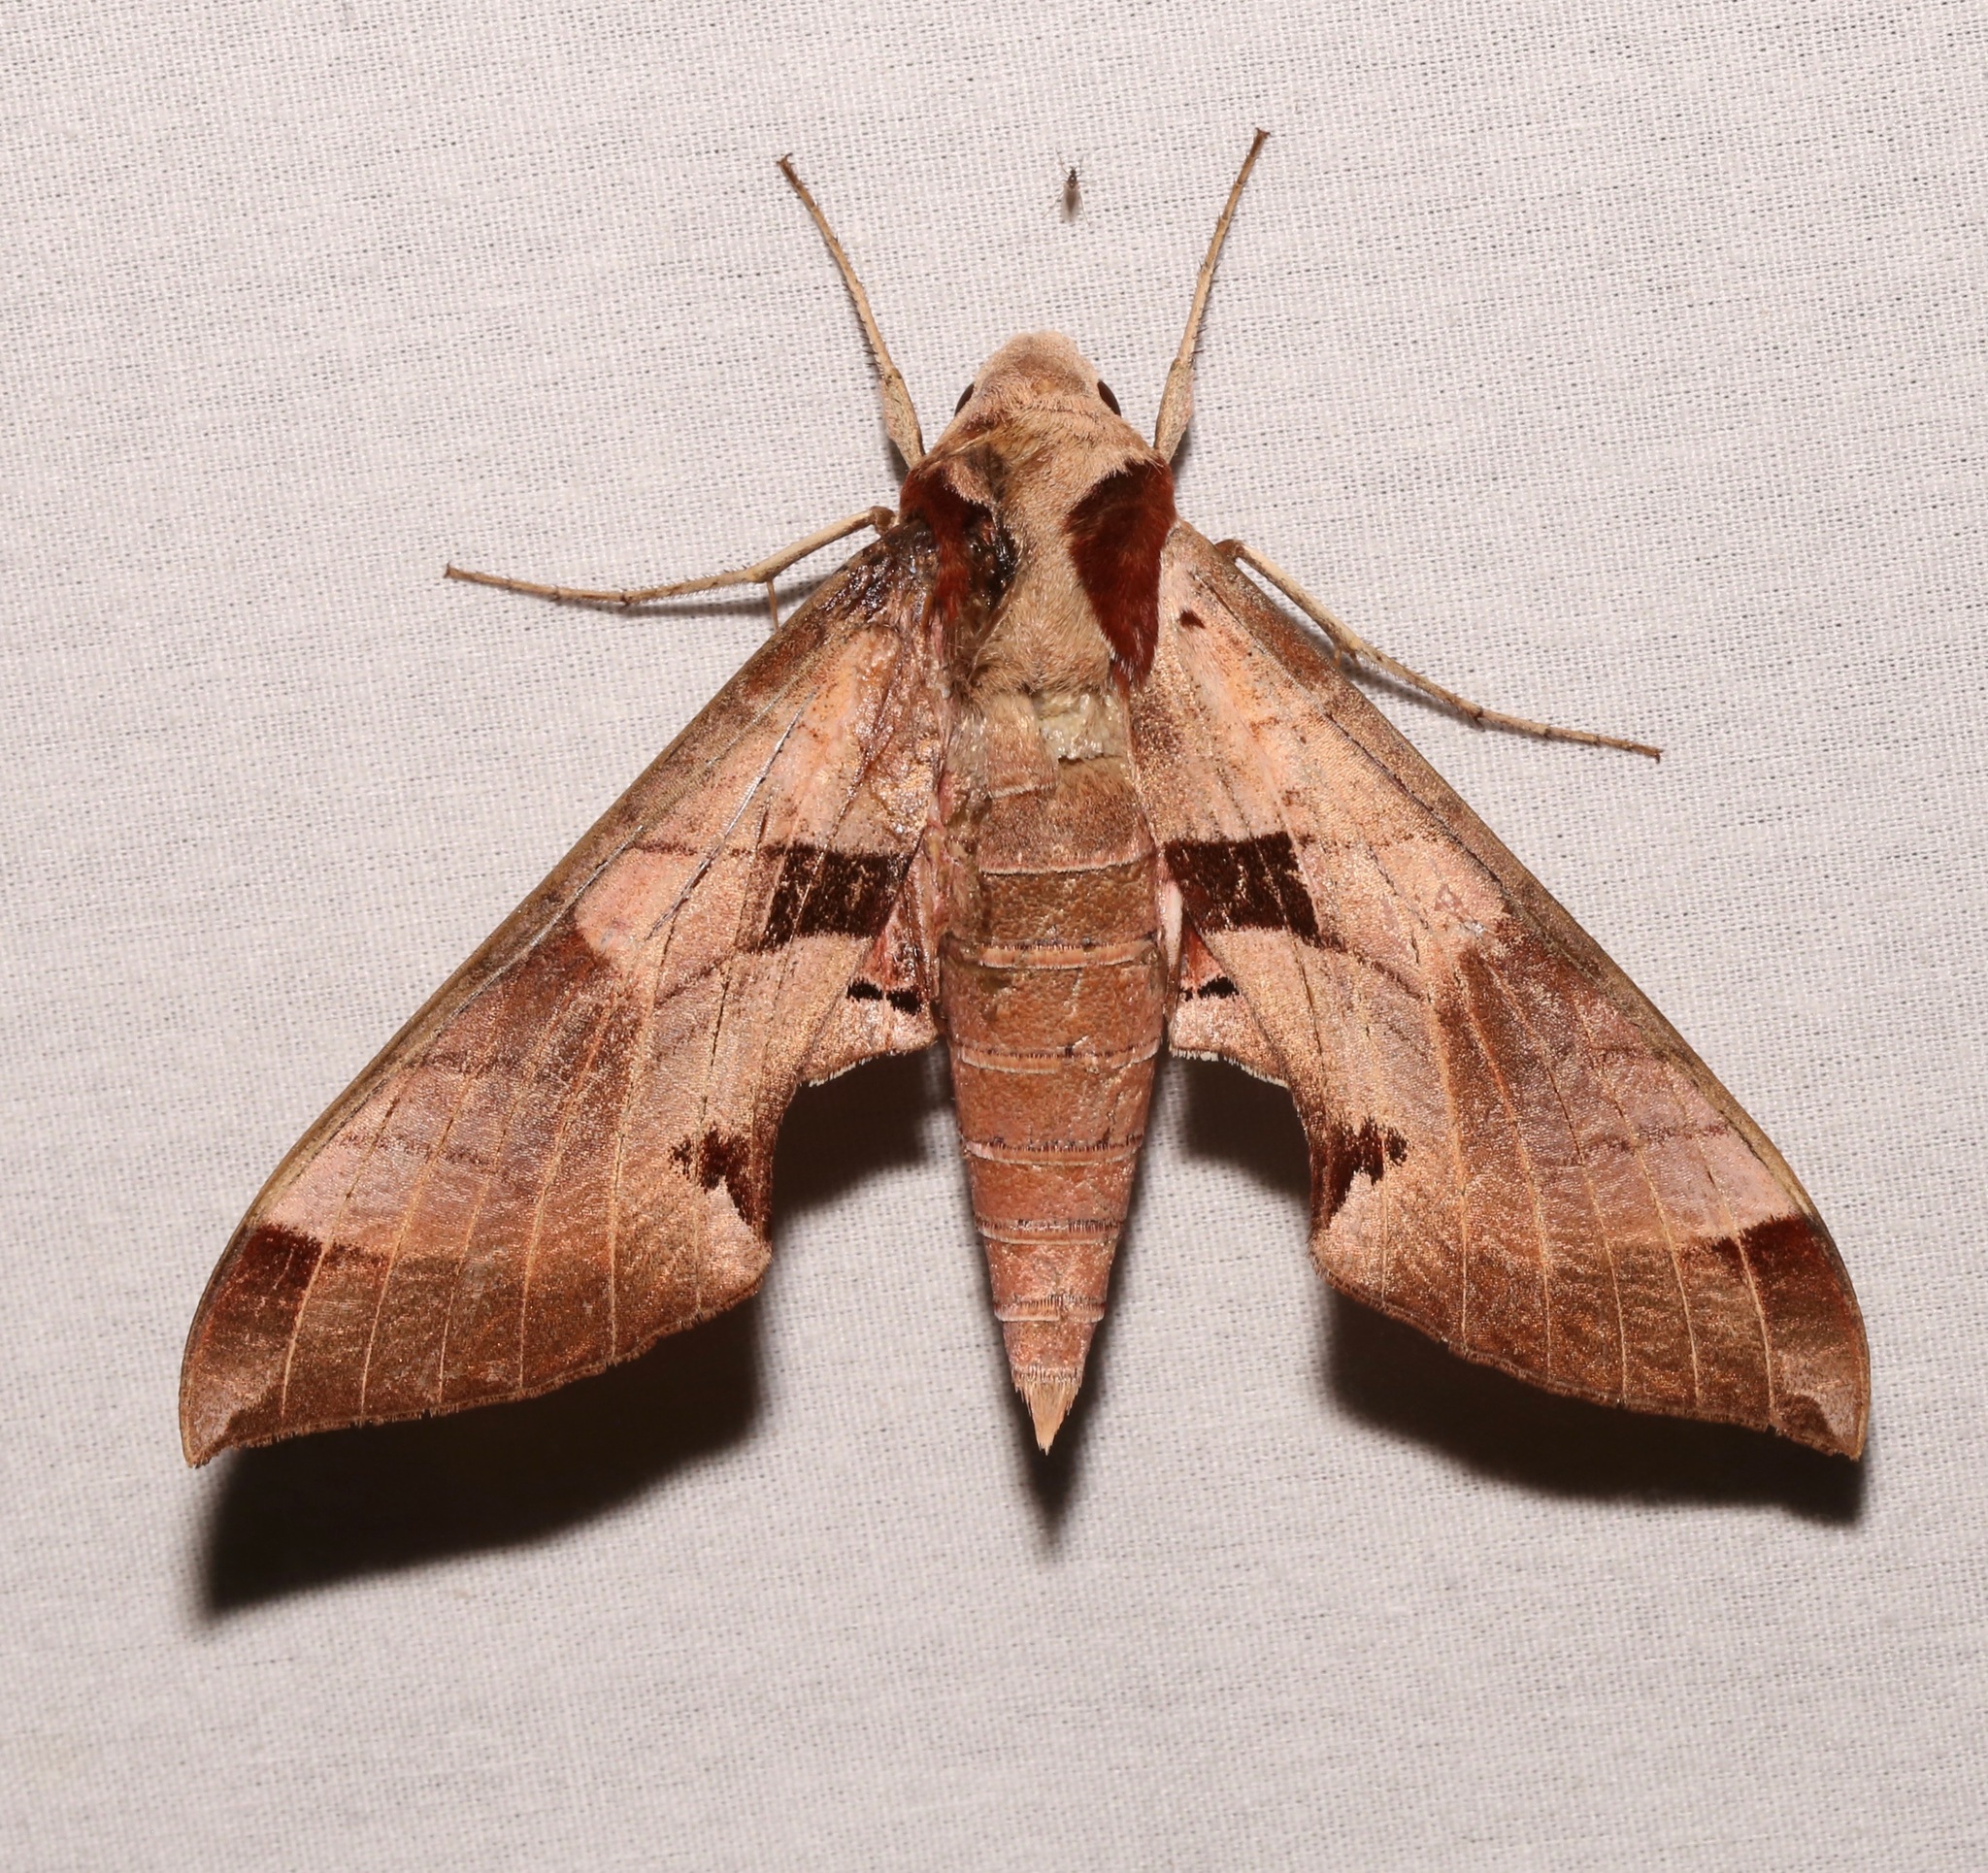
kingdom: Animalia
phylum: Arthropoda
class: Insecta
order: Lepidoptera
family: Sphingidae
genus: Eumorpha
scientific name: Eumorpha achemon
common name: Achemon sphinx
